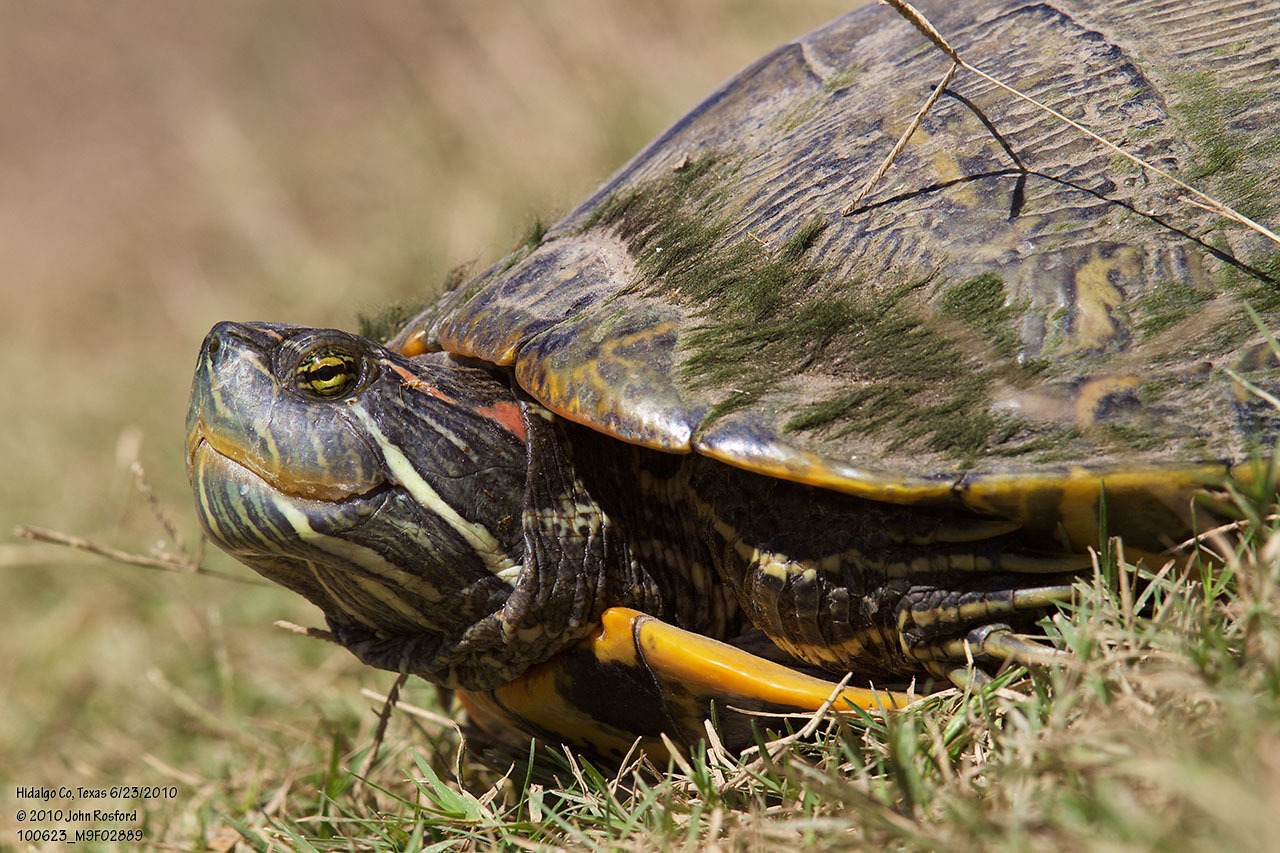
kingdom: Animalia
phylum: Chordata
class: Testudines
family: Emydidae
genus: Trachemys
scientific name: Trachemys scripta
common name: Slider
